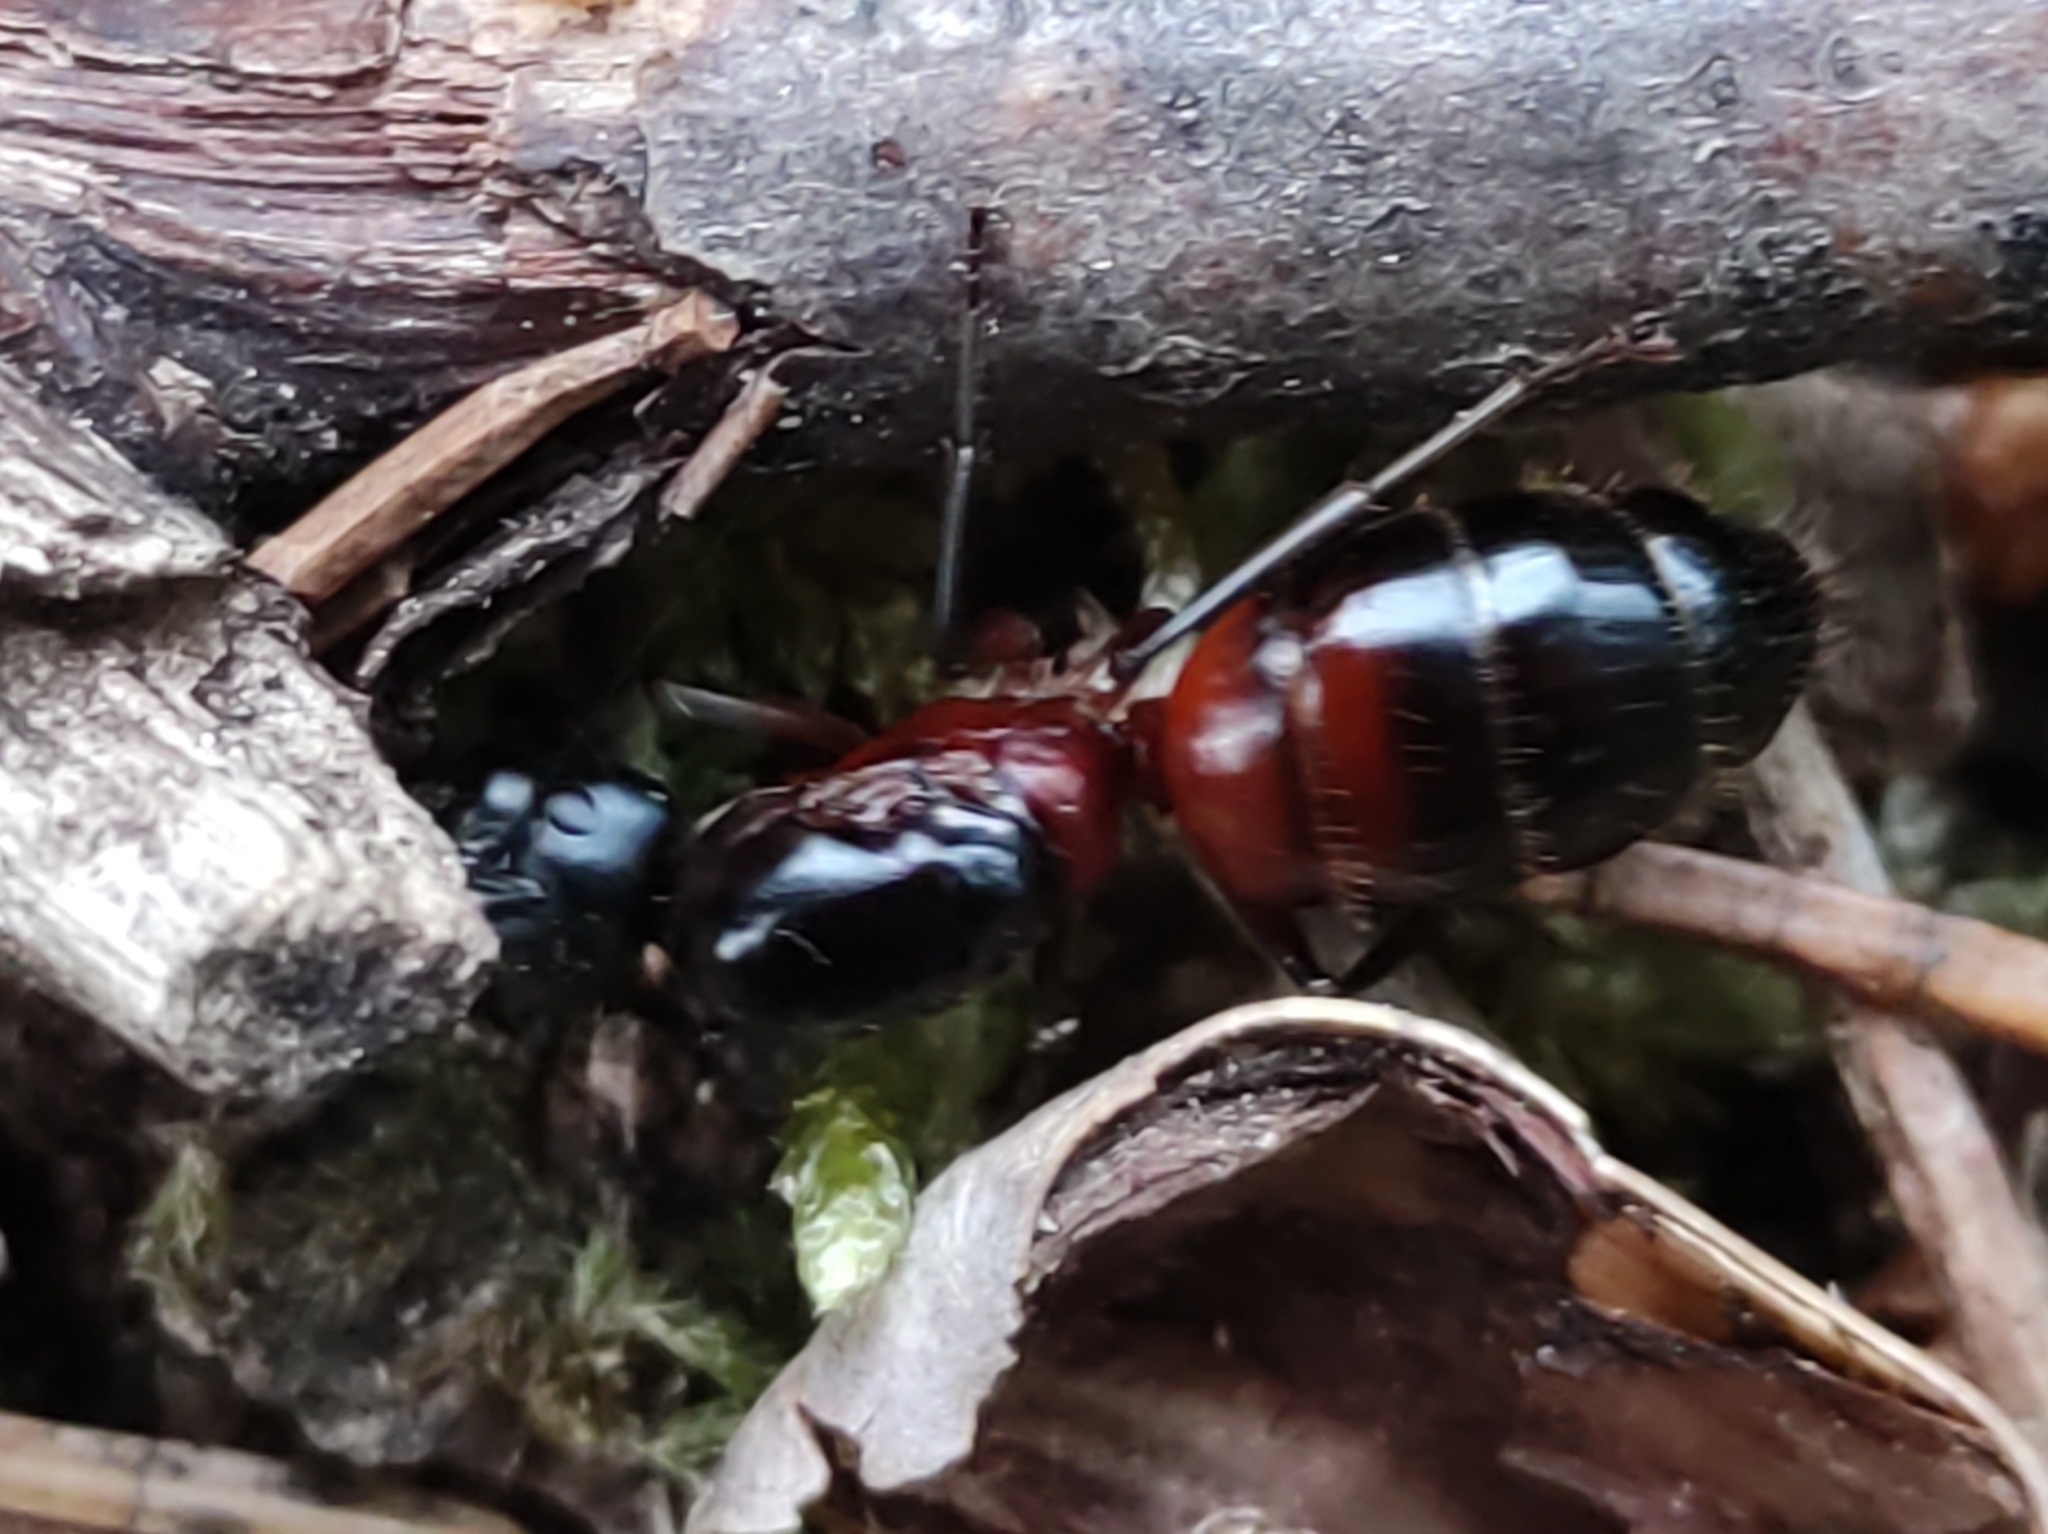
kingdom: Animalia
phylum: Arthropoda
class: Insecta
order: Hymenoptera
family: Formicidae
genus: Camponotus
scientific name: Camponotus ligniperdus
